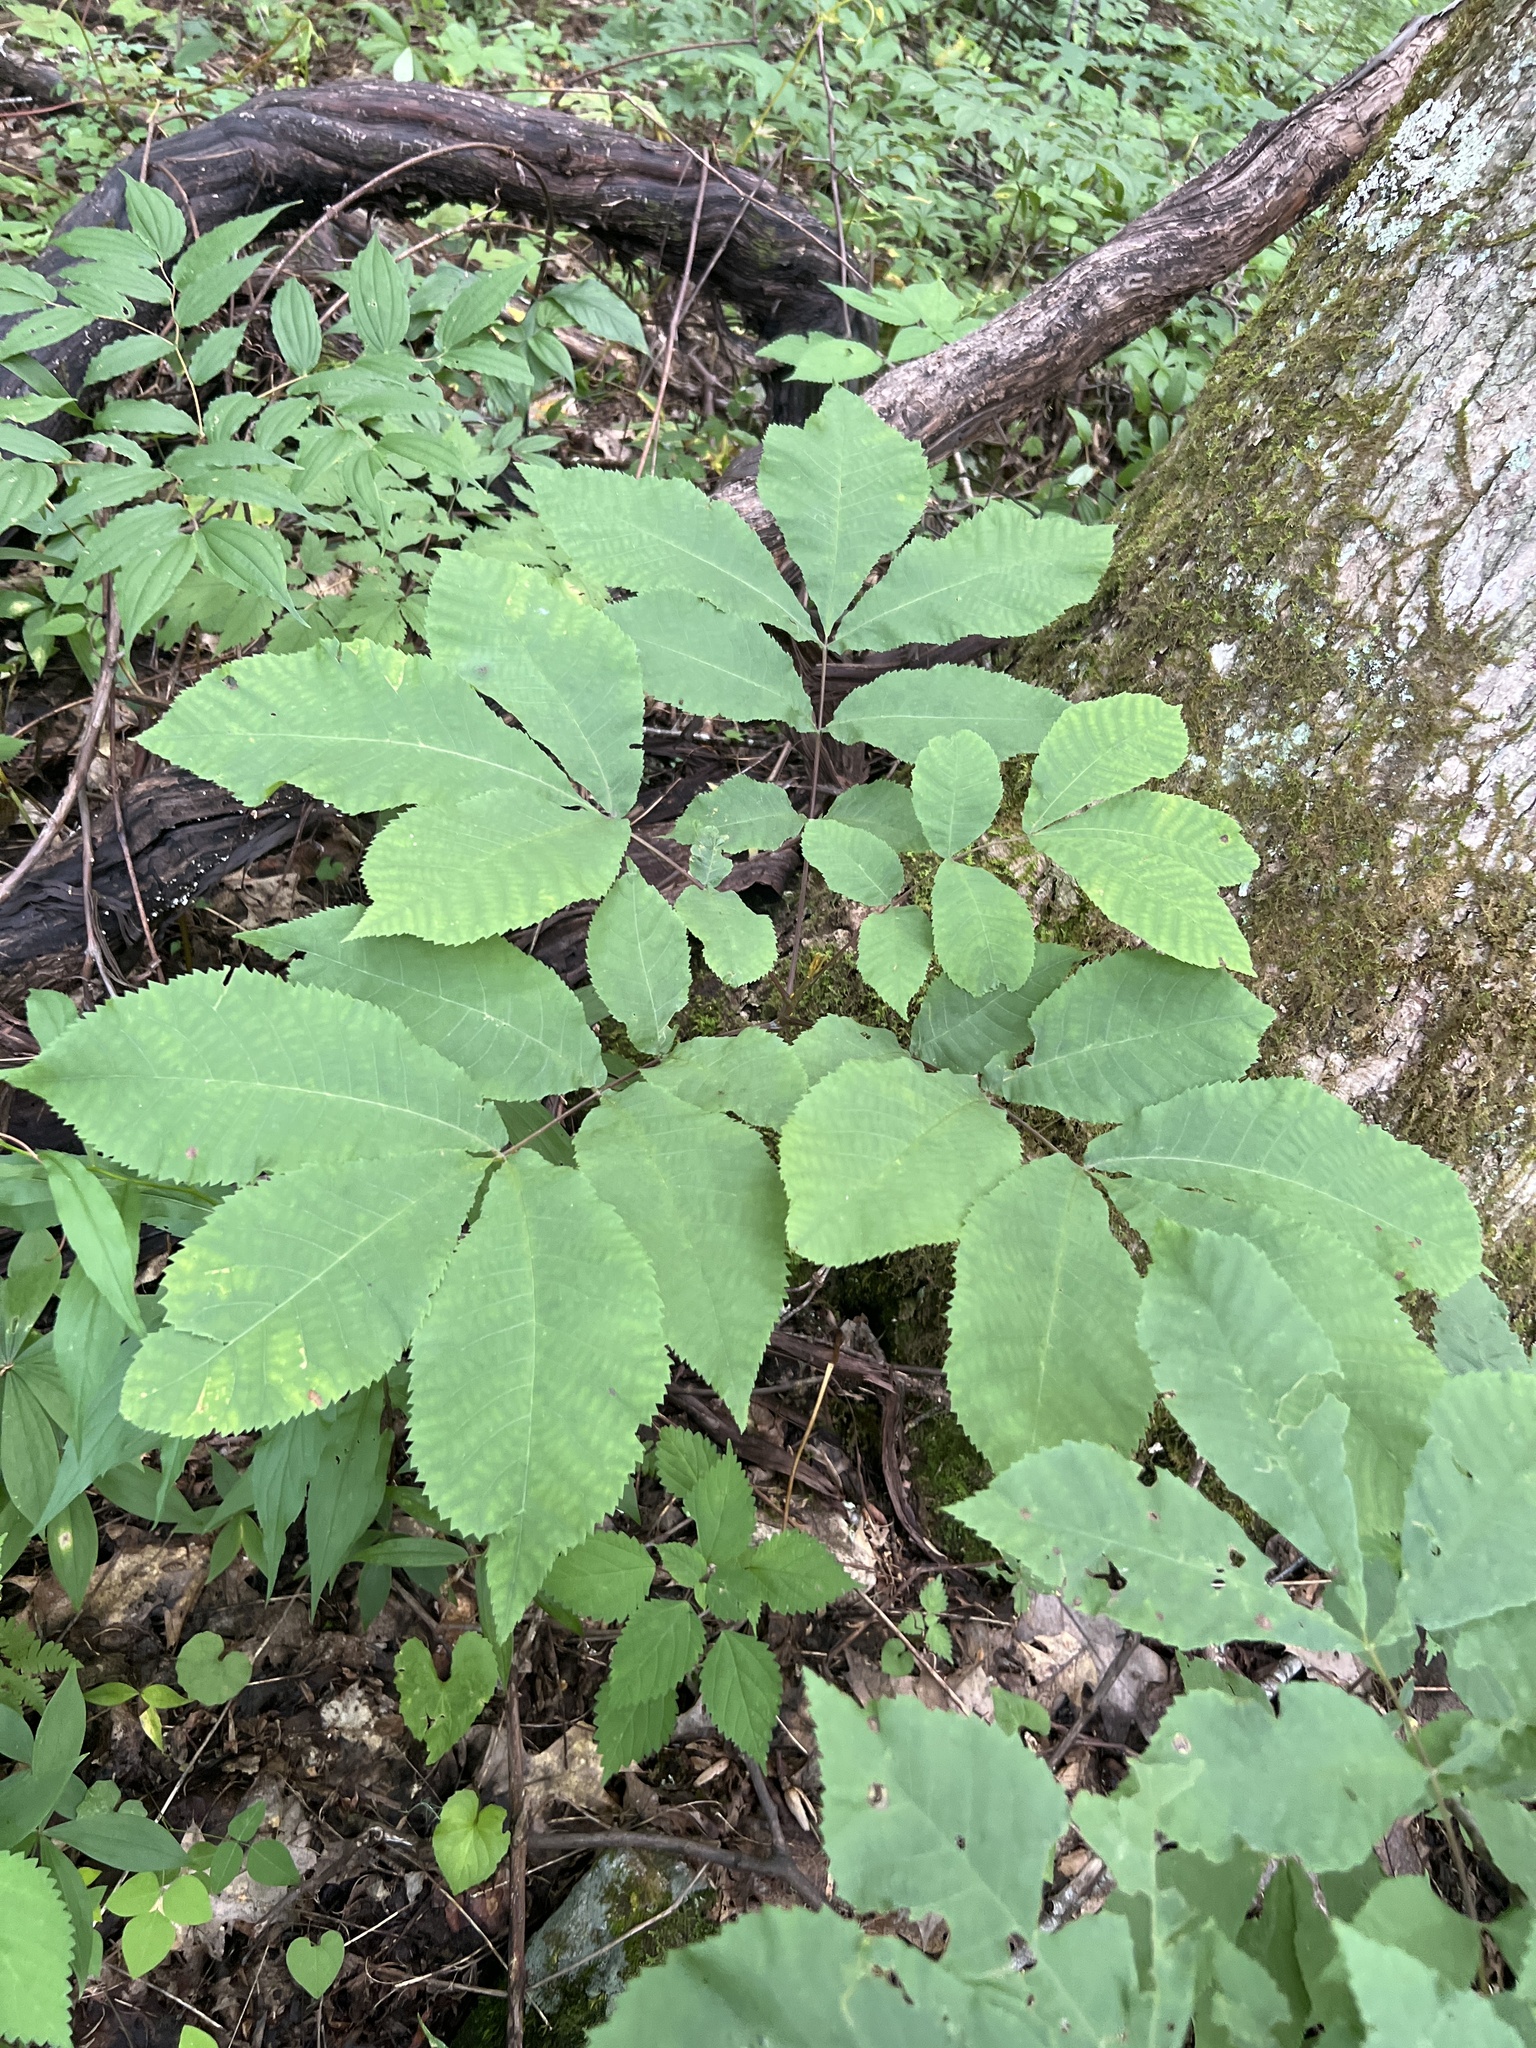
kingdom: Plantae
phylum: Tracheophyta
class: Magnoliopsida
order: Fagales
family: Juglandaceae
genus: Carya
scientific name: Carya cordiformis
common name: Bitternut hickory
